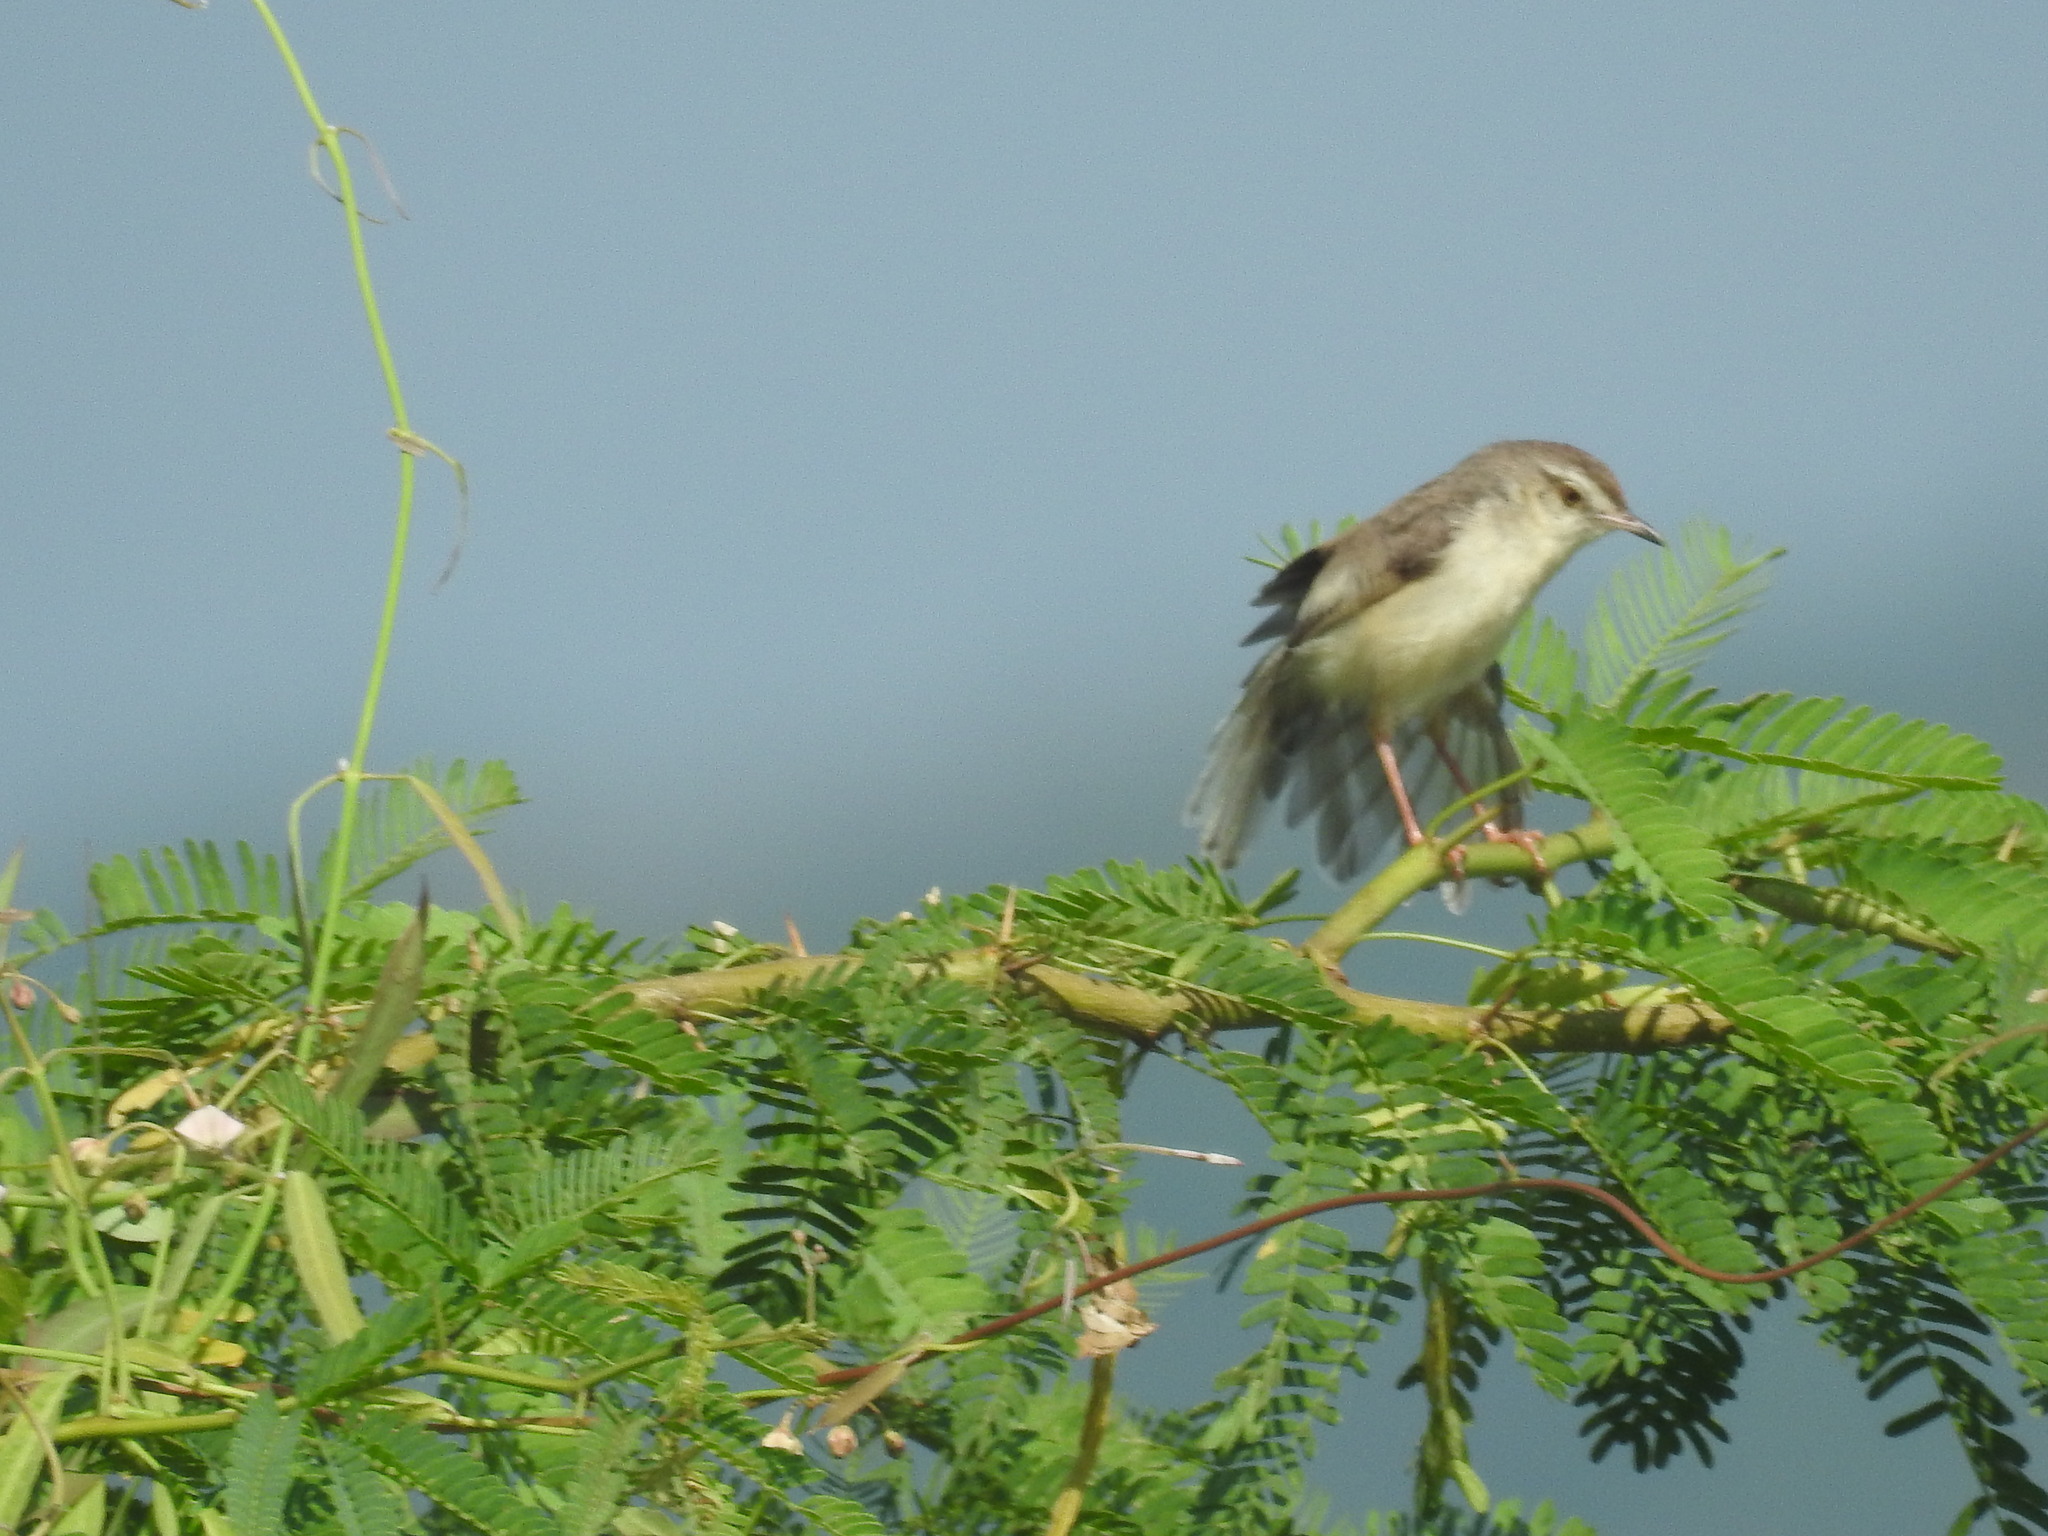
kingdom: Animalia
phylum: Chordata
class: Aves
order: Passeriformes
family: Cisticolidae
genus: Prinia
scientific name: Prinia inornata
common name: Plain prinia
